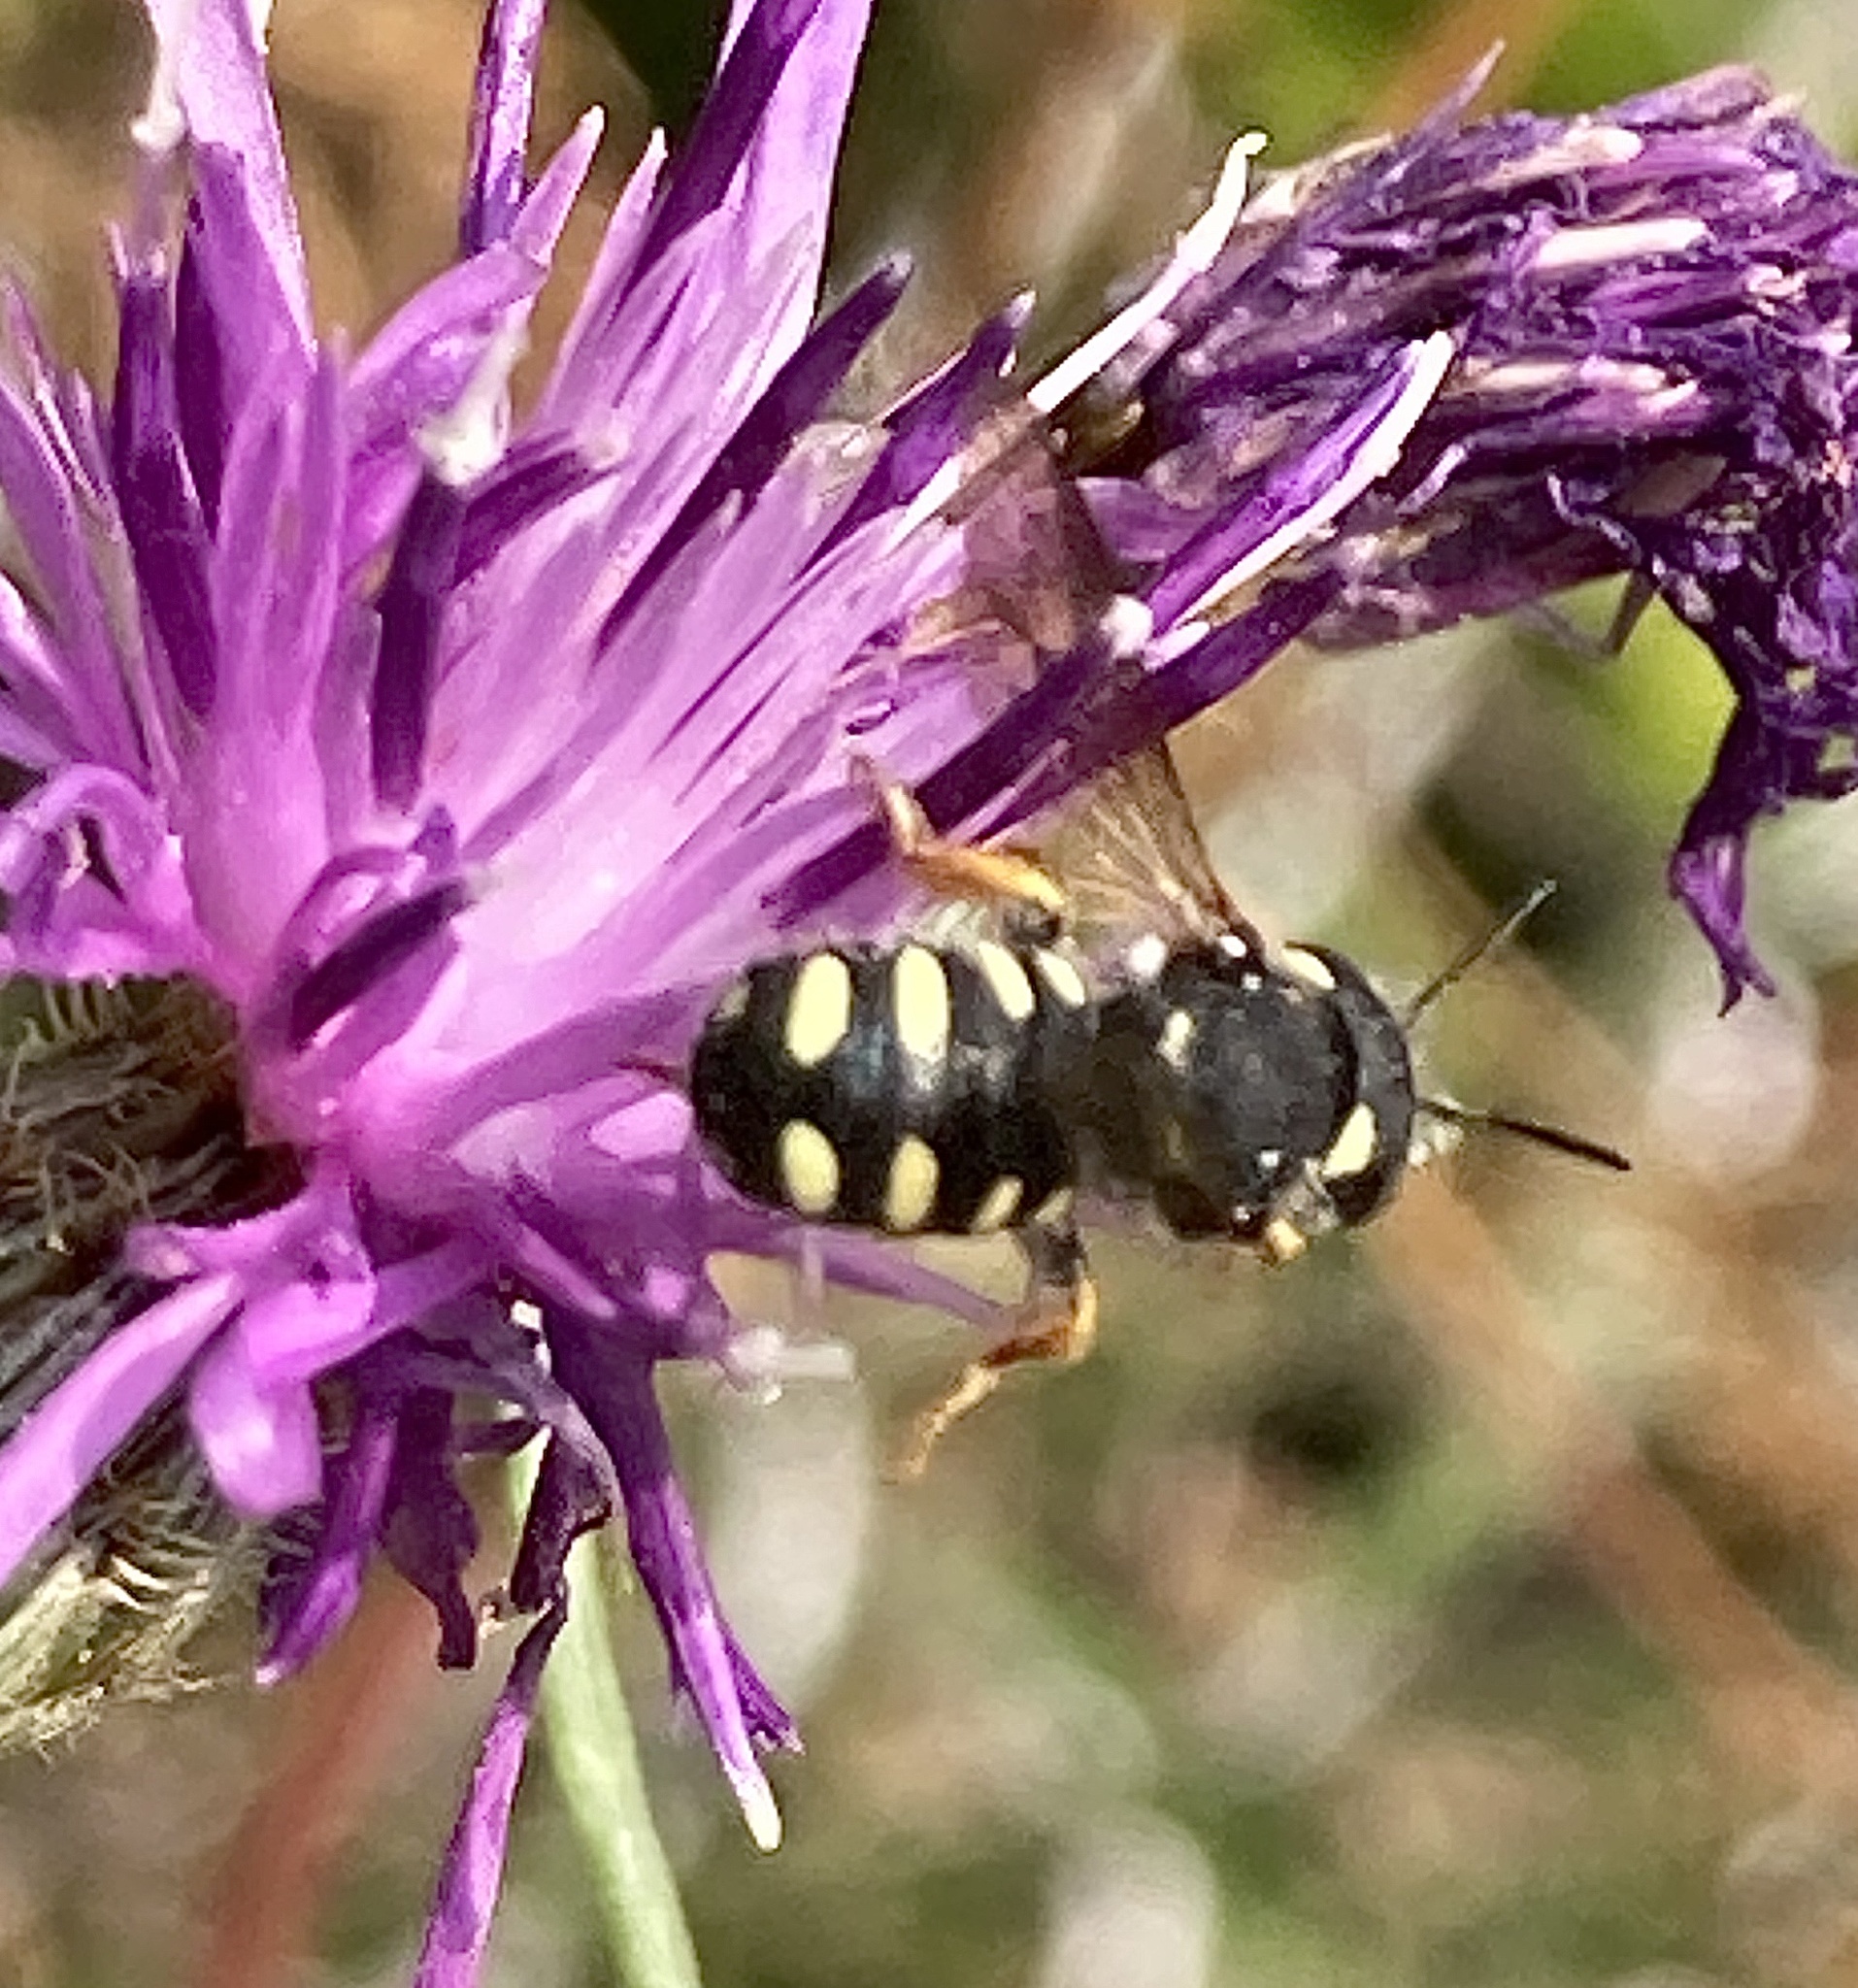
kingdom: Animalia
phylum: Arthropoda
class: Insecta
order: Hymenoptera
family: Megachilidae
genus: Pseudoanthidium
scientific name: Pseudoanthidium nanum
